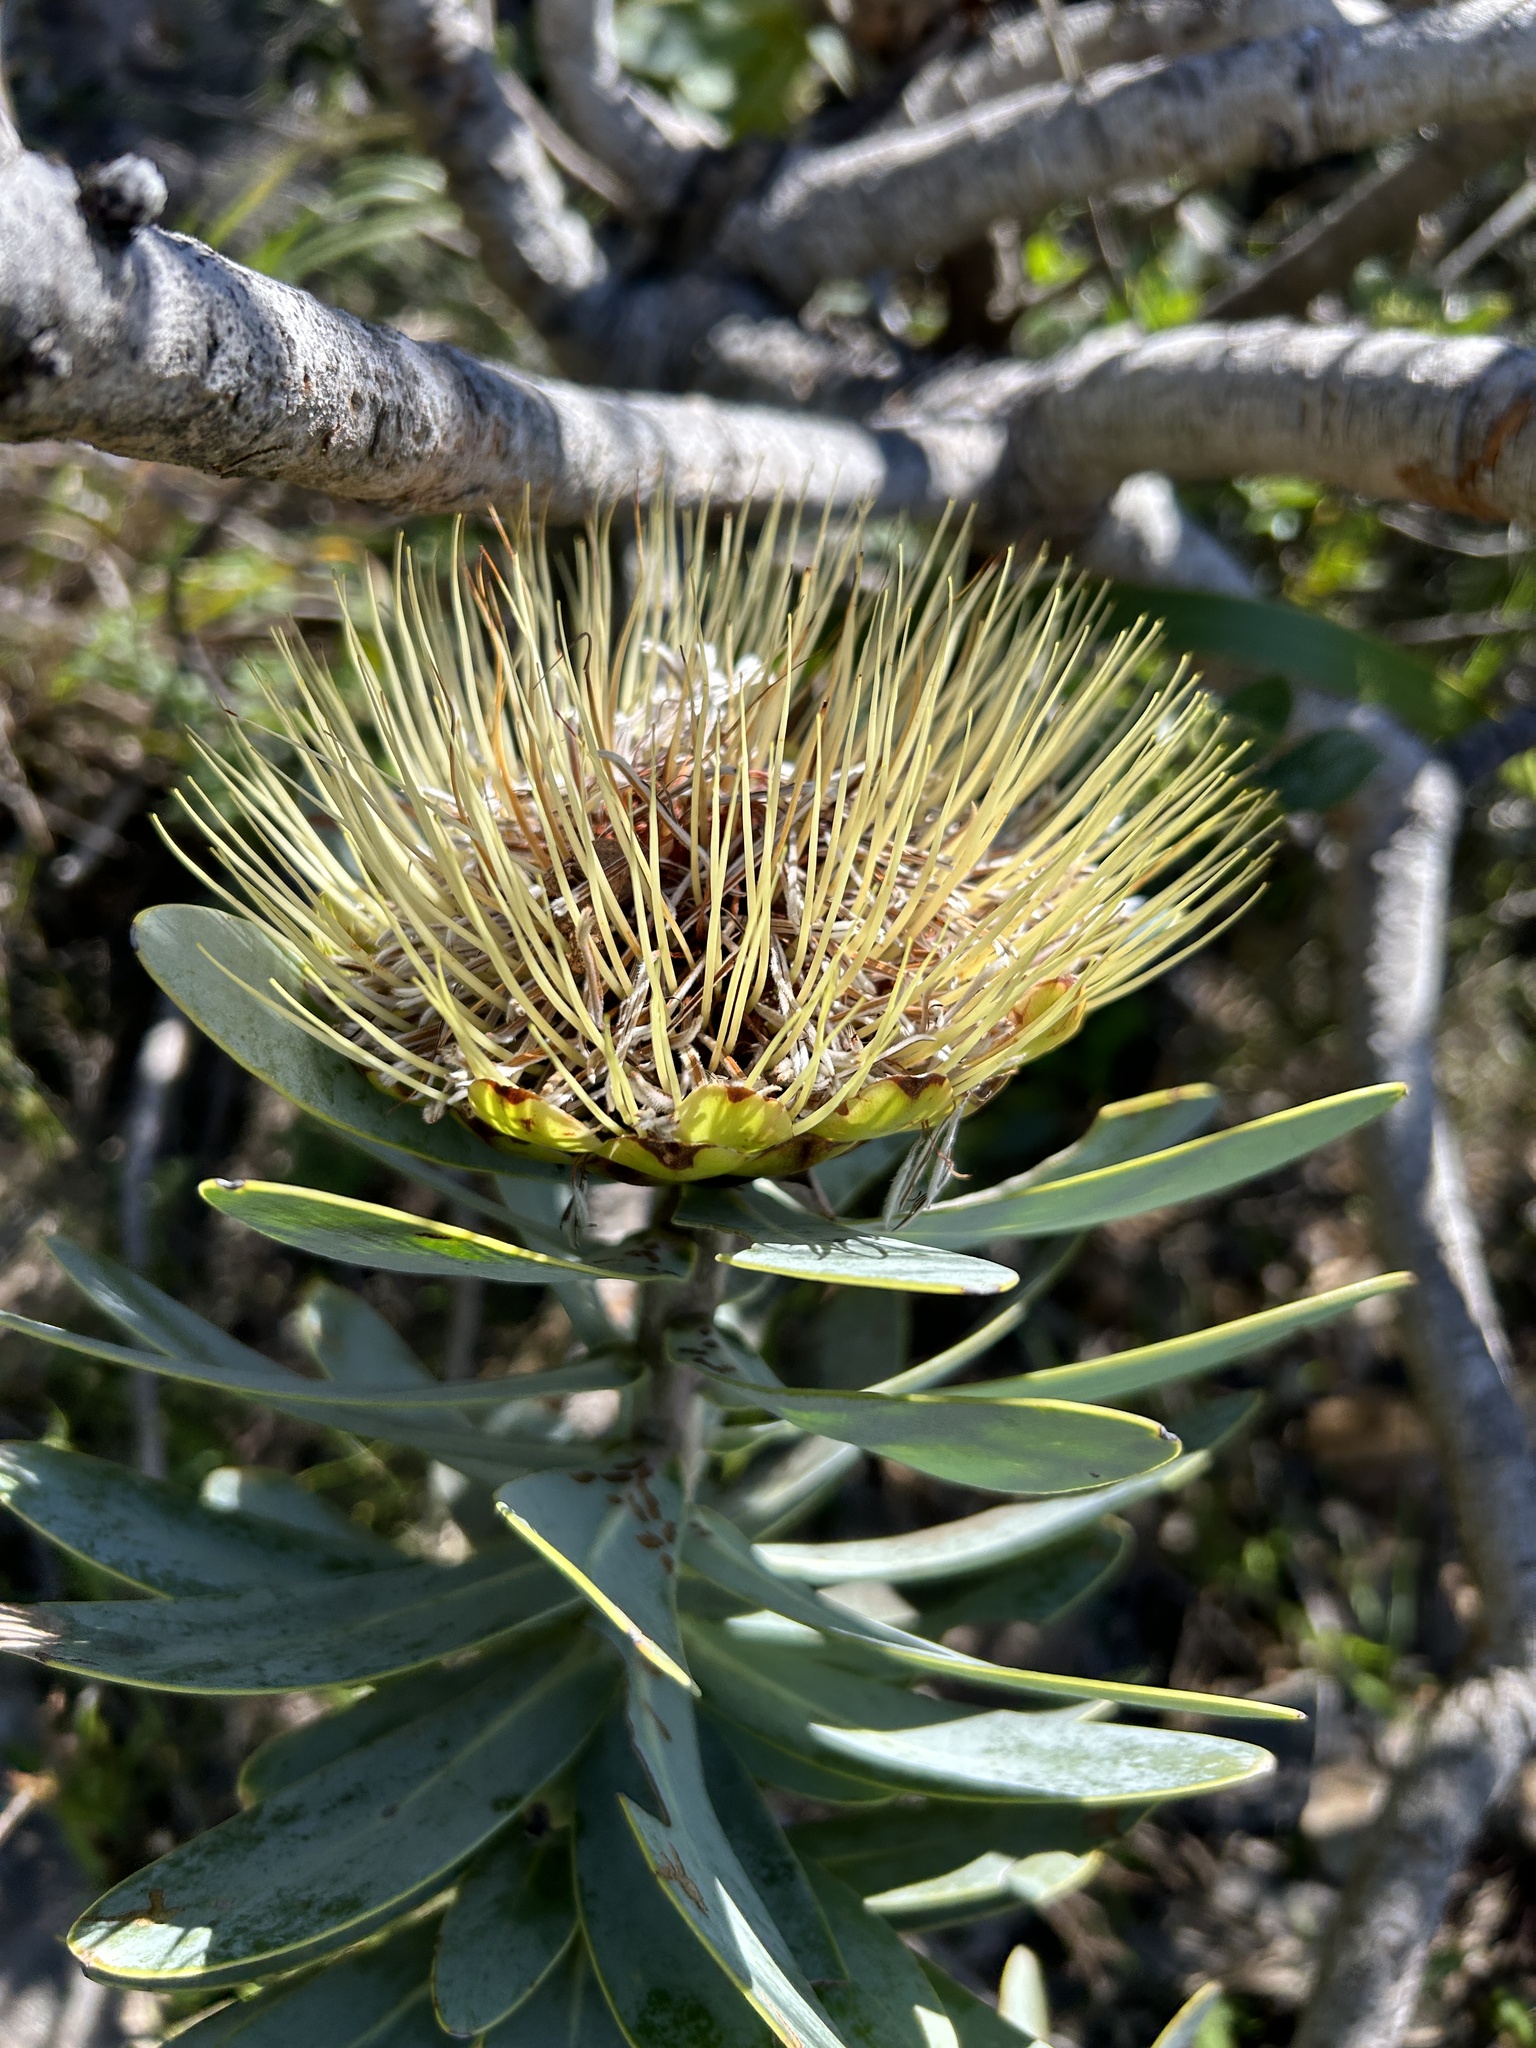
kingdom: Plantae
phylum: Tracheophyta
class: Magnoliopsida
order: Proteales
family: Proteaceae
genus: Protea
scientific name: Protea nitida
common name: Tree protea
